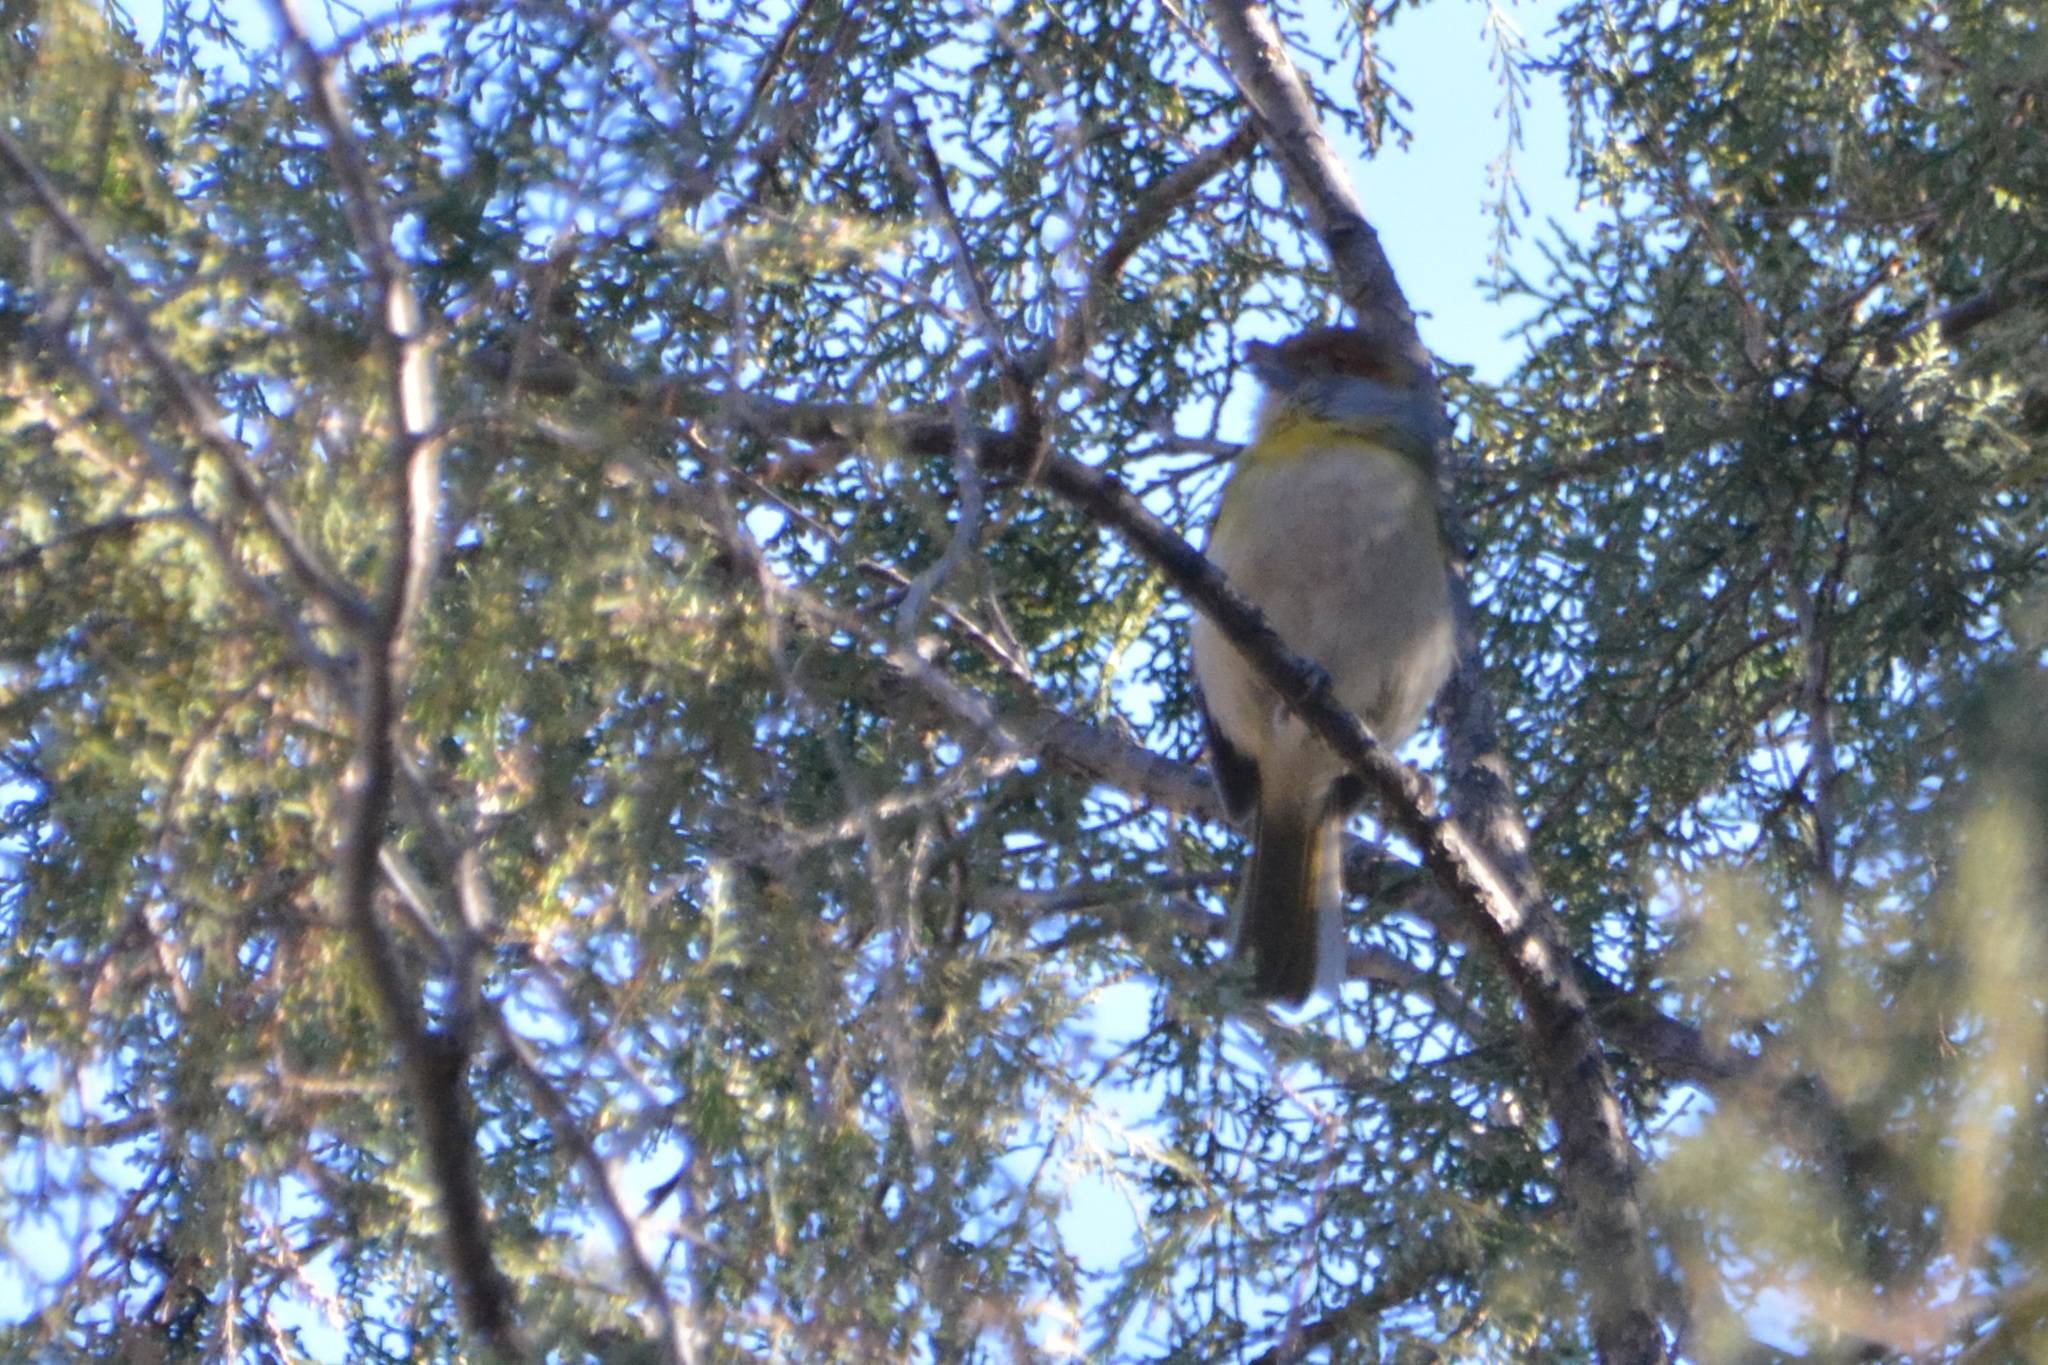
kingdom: Animalia
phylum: Chordata
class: Aves
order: Passeriformes
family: Vireonidae
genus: Cyclarhis
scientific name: Cyclarhis gujanensis
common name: Rufous-browed peppershrike
